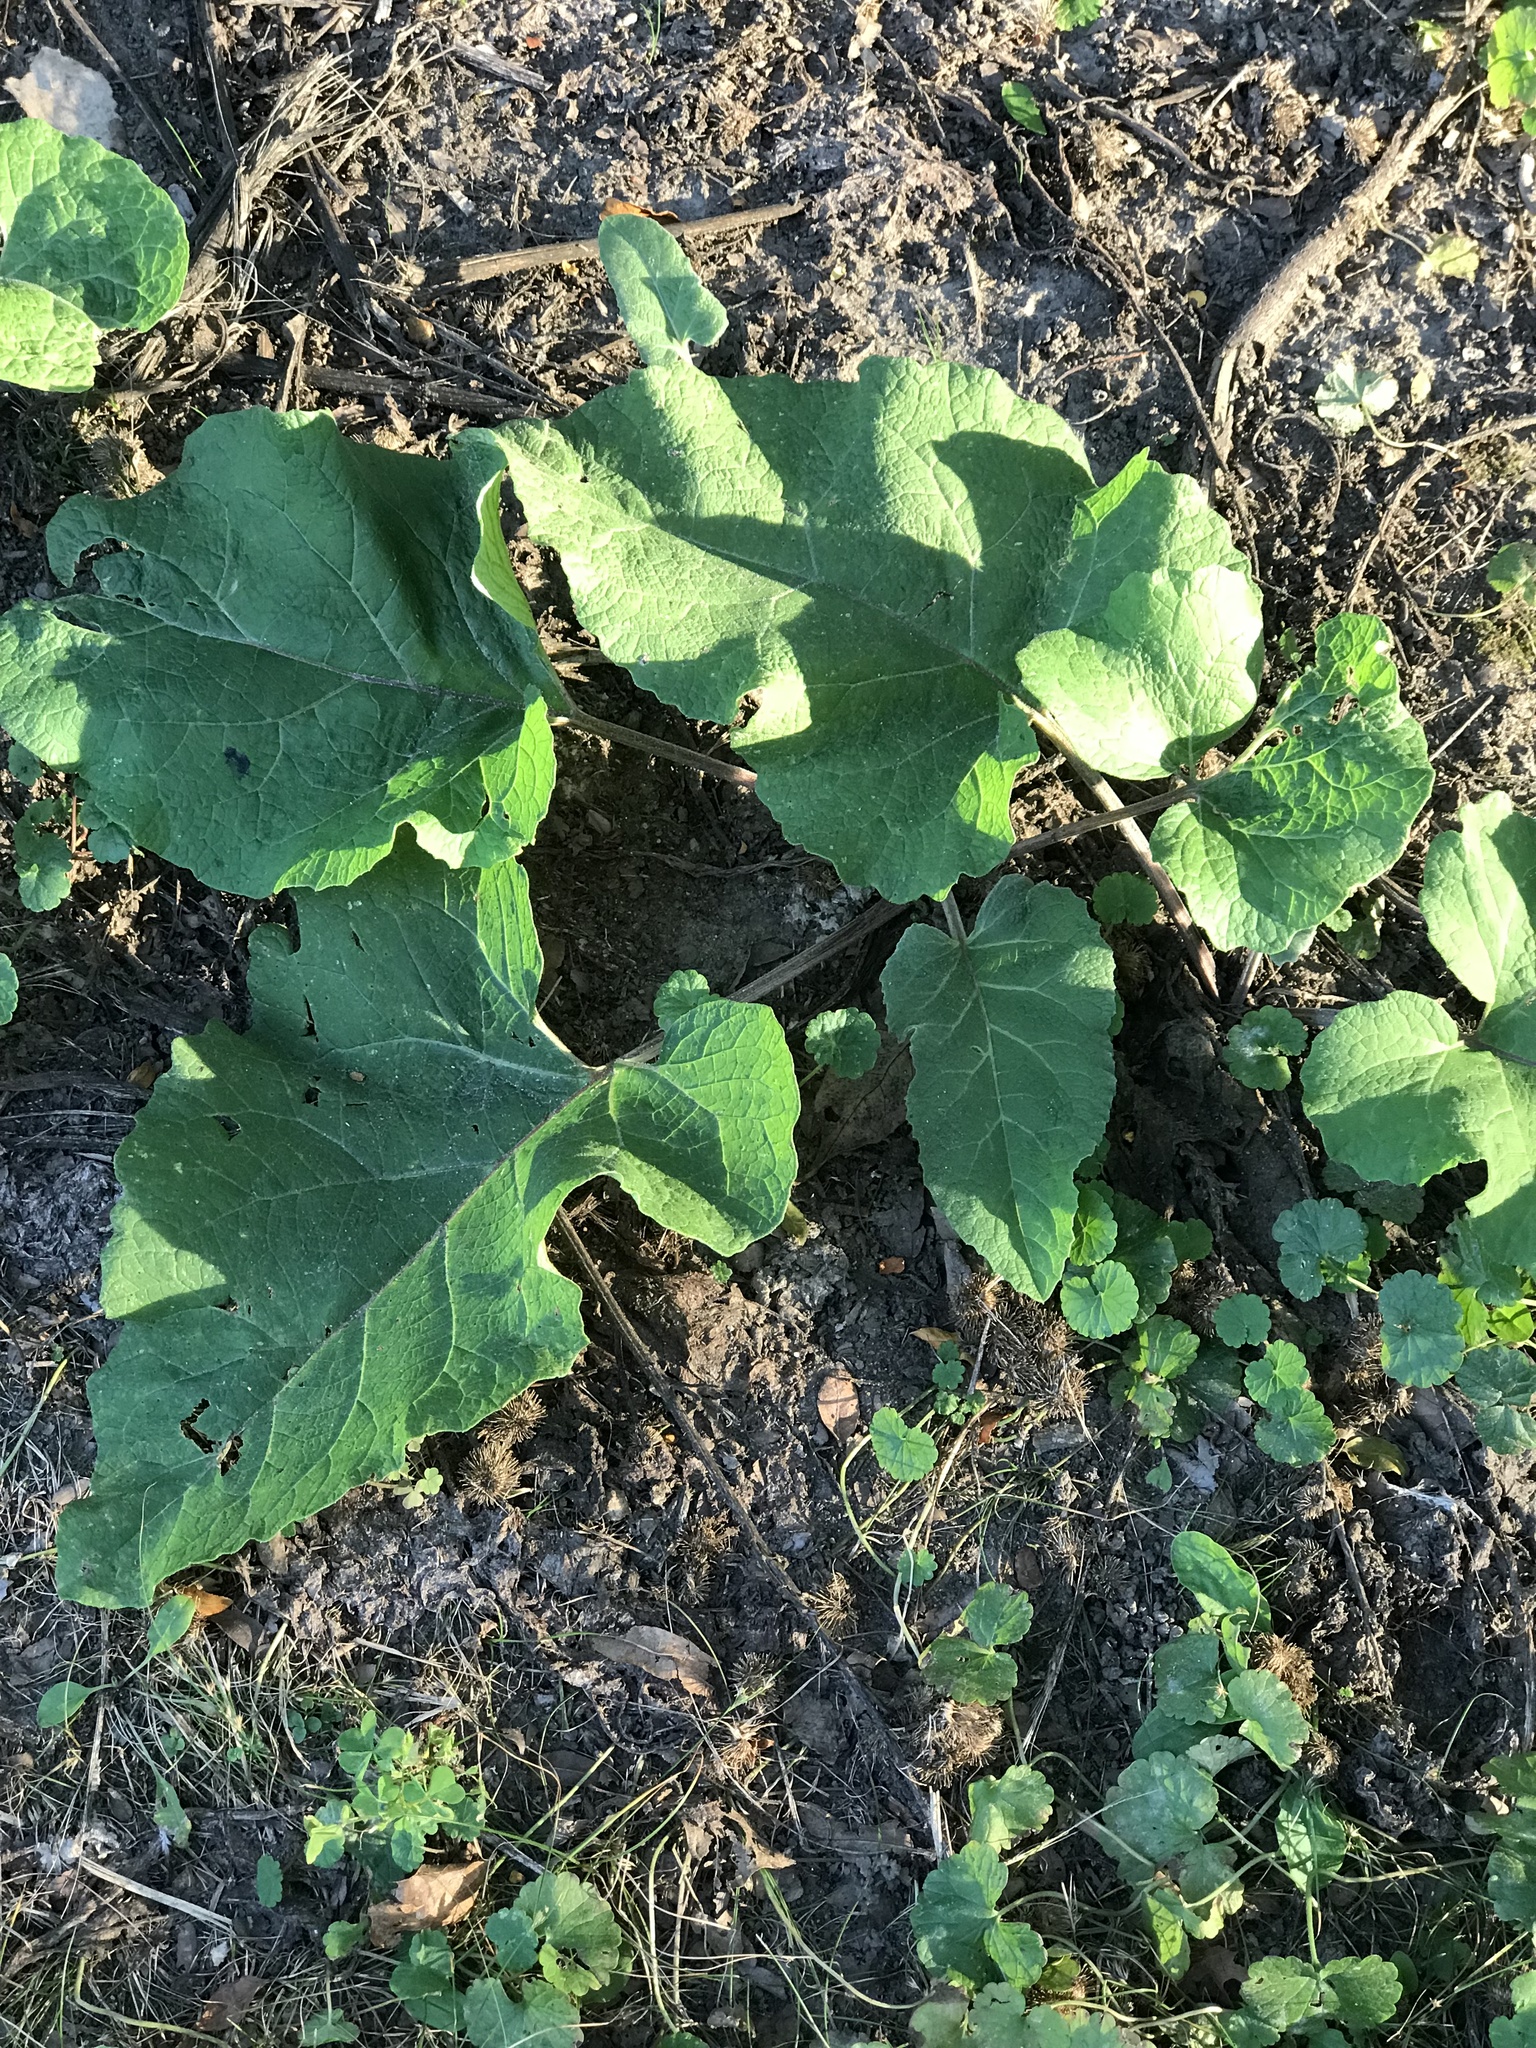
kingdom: Plantae
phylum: Tracheophyta
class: Magnoliopsida
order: Asterales
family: Asteraceae
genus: Arctium
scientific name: Arctium
